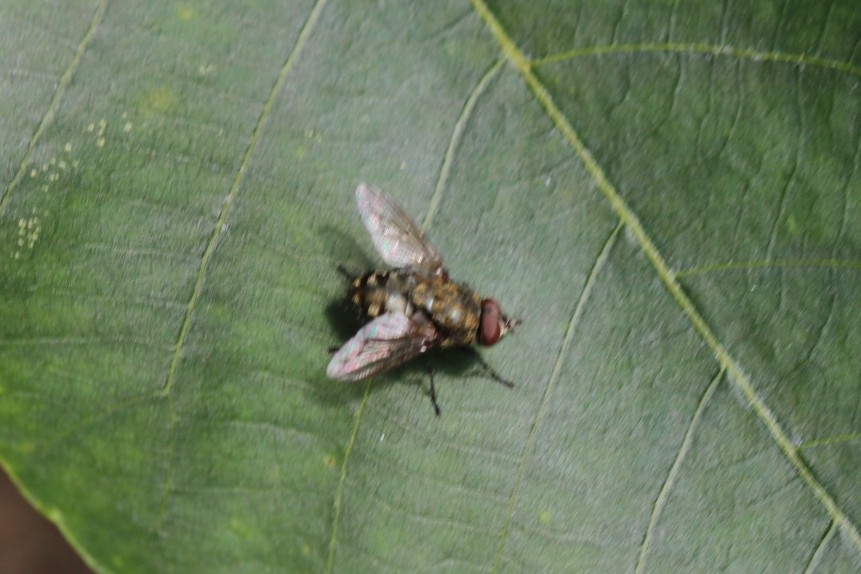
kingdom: Animalia
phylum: Arthropoda
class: Insecta
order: Diptera
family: Polleniidae
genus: Pollenia
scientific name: Pollenia
